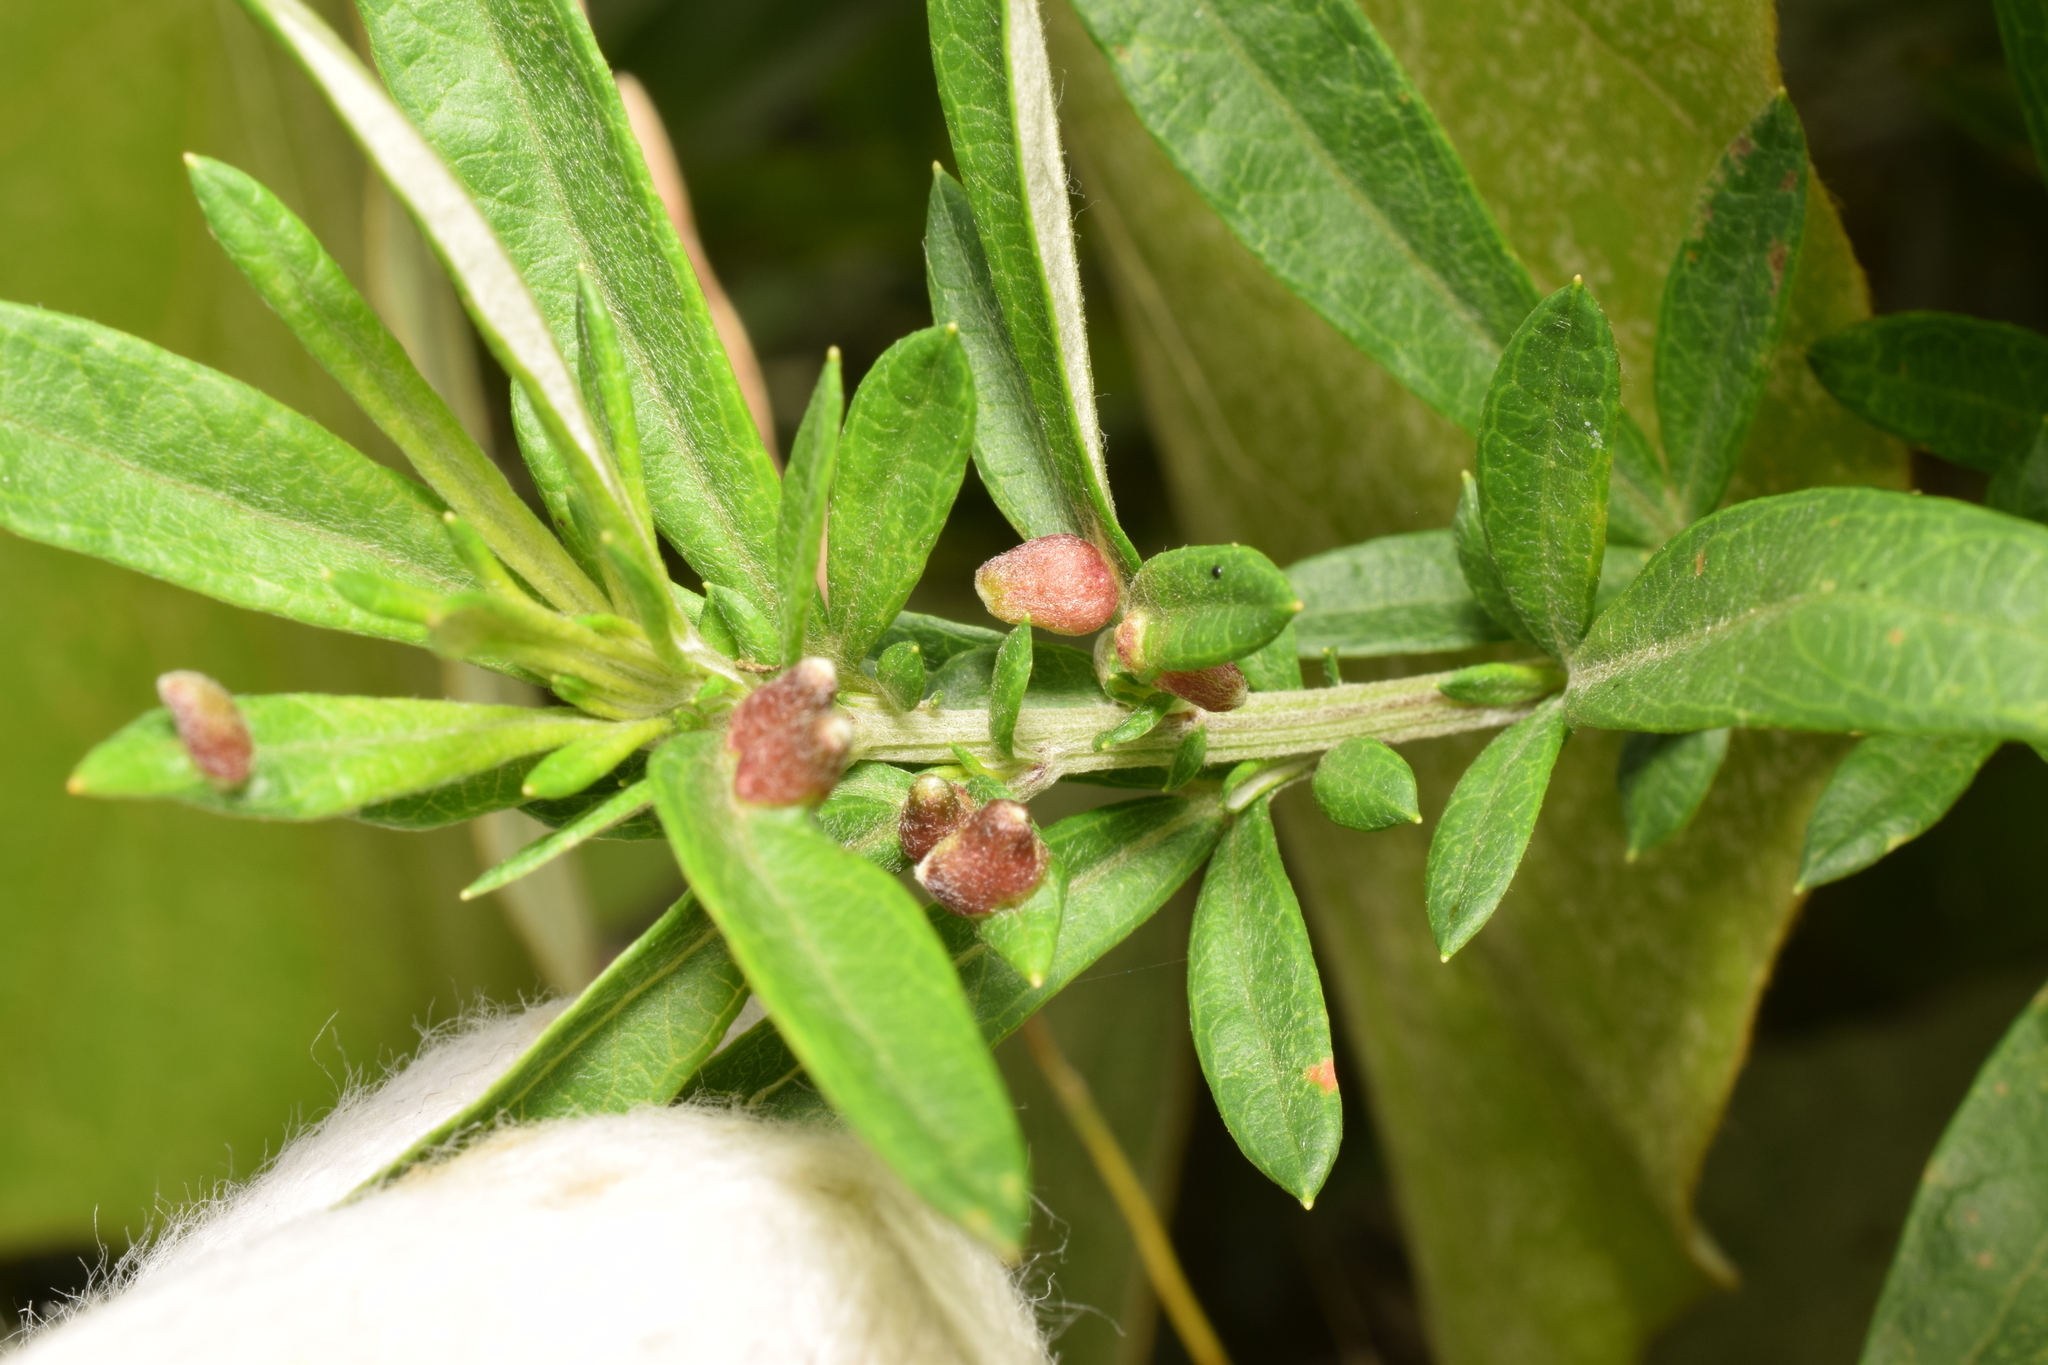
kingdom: Animalia
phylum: Arthropoda
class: Insecta
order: Diptera
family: Cecidomyiidae
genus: Rhopalomyia
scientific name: Rhopalomyia yomogicola
